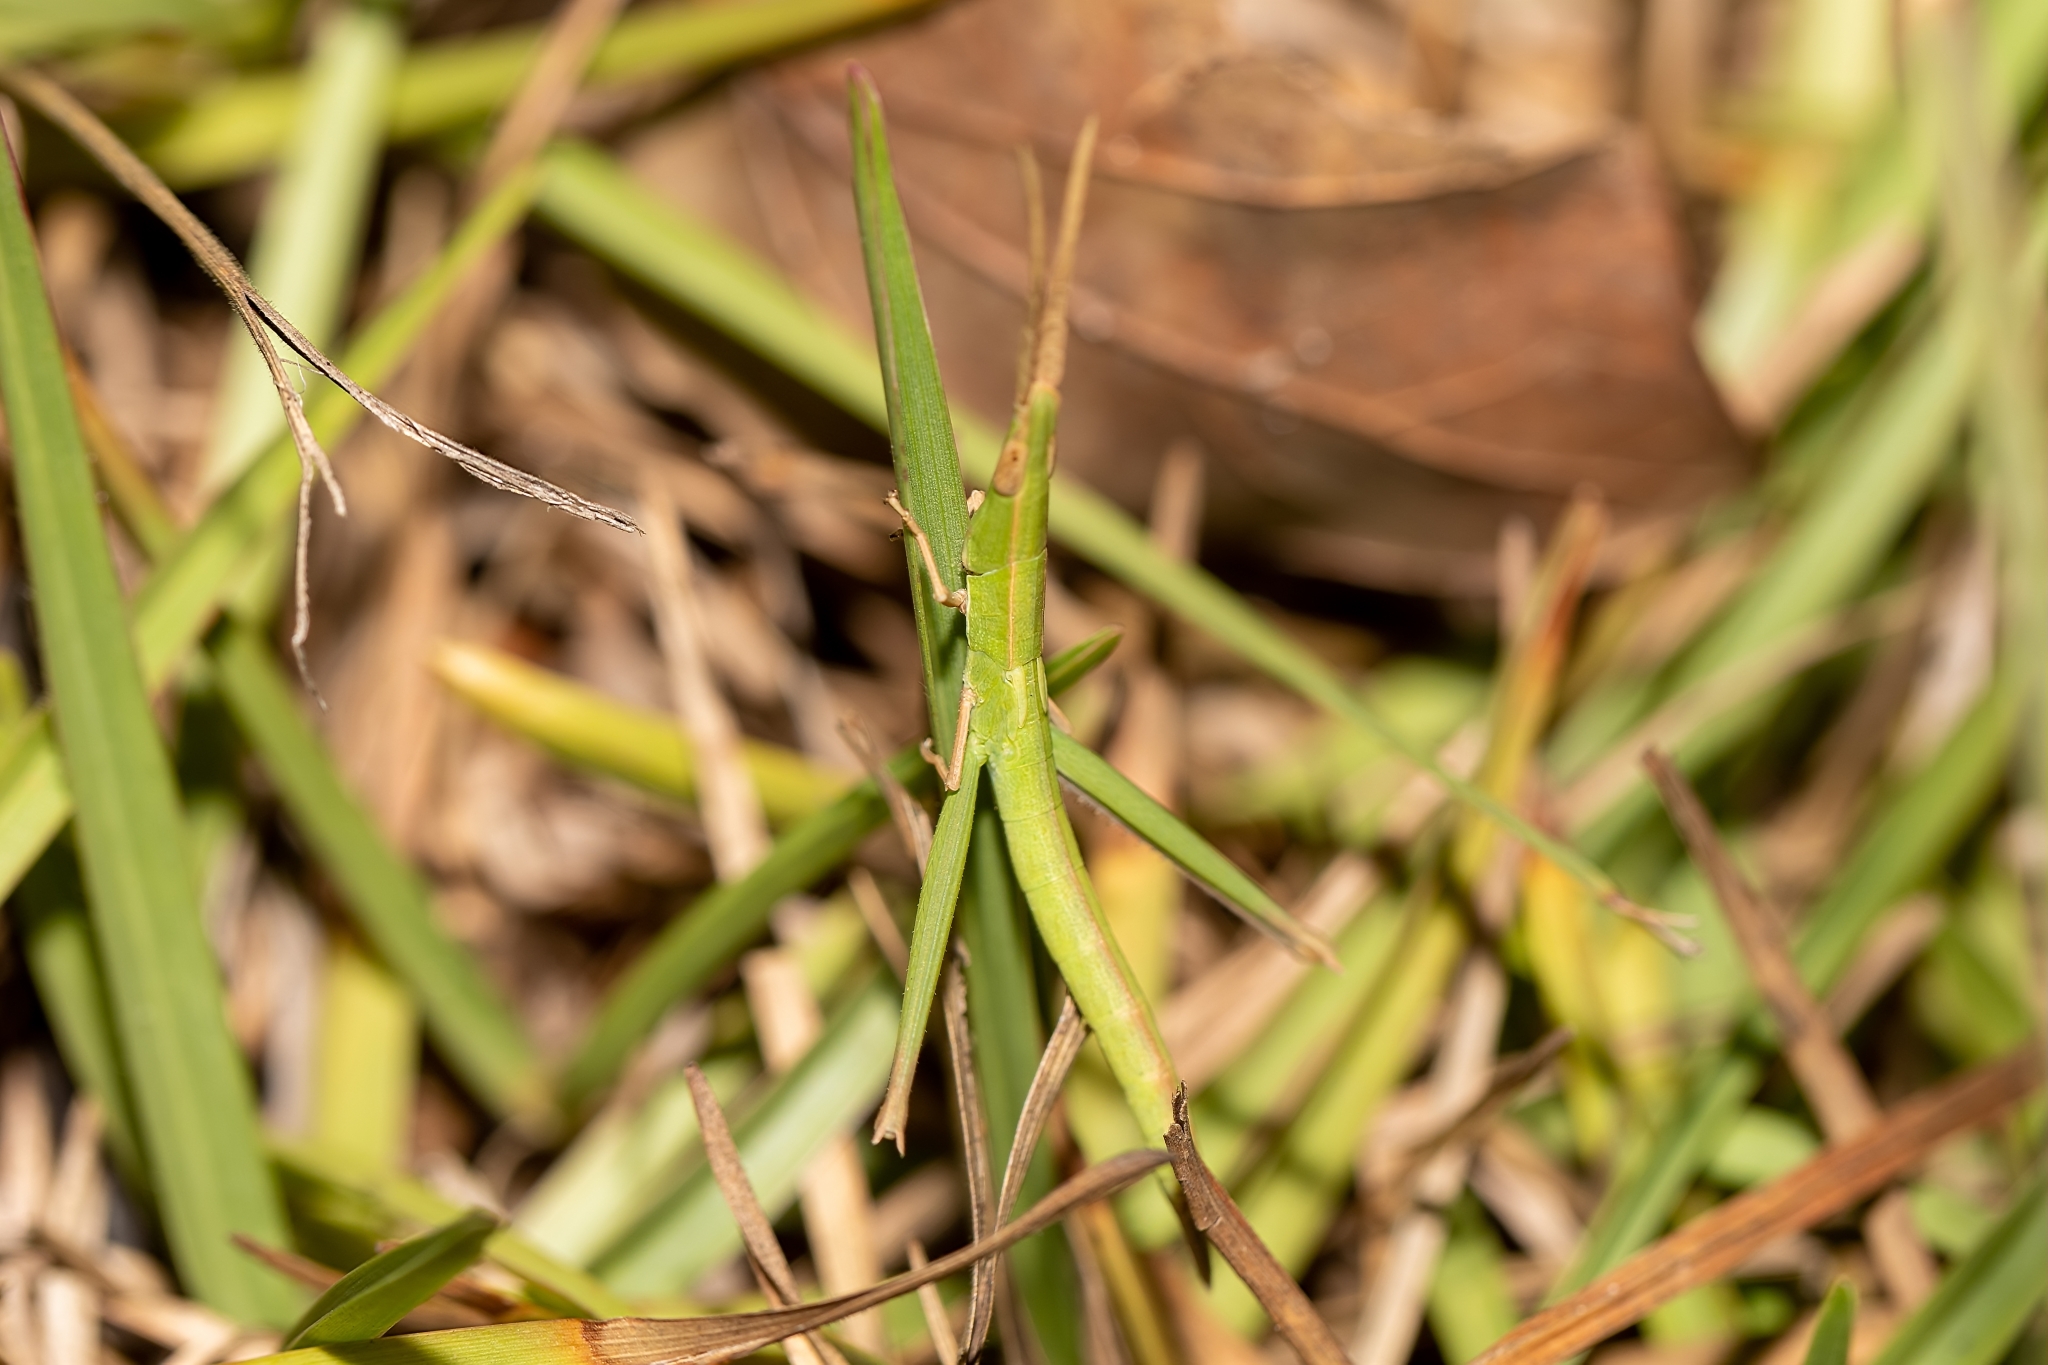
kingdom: Animalia
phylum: Arthropoda
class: Insecta
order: Orthoptera
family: Acrididae
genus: Achurum
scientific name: Achurum carinatum
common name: Long-headed toothpick grasshopper
